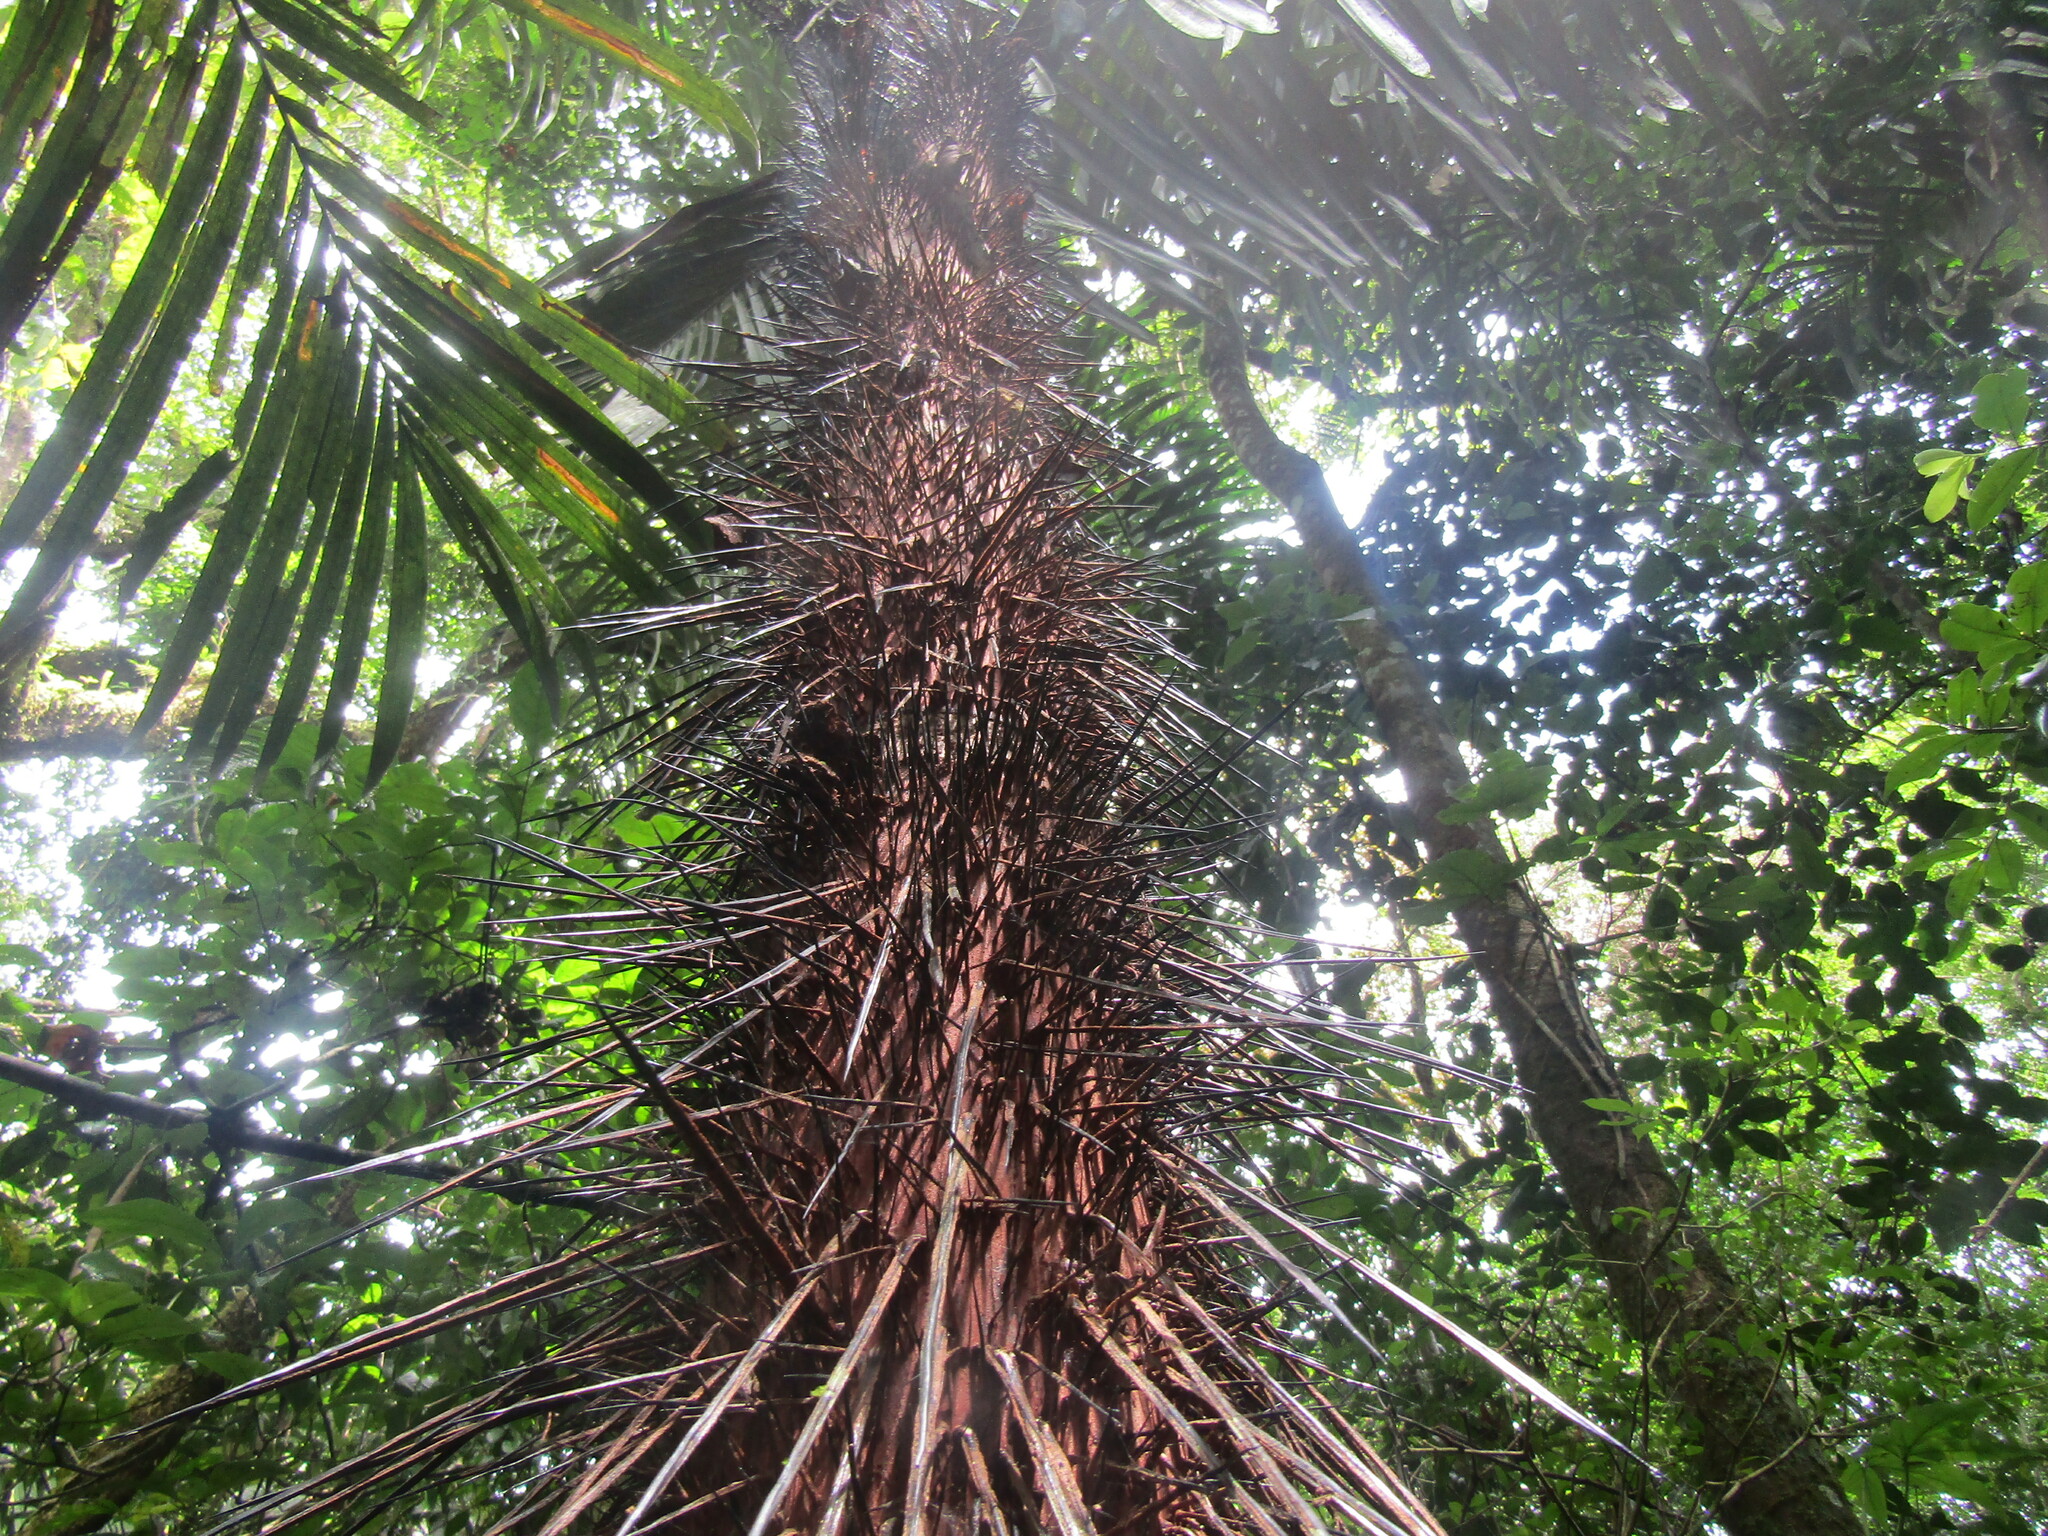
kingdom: Plantae
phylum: Tracheophyta
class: Liliopsida
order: Arecales
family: Arecaceae
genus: Astrocaryum
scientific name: Astrocaryum standleyanum
